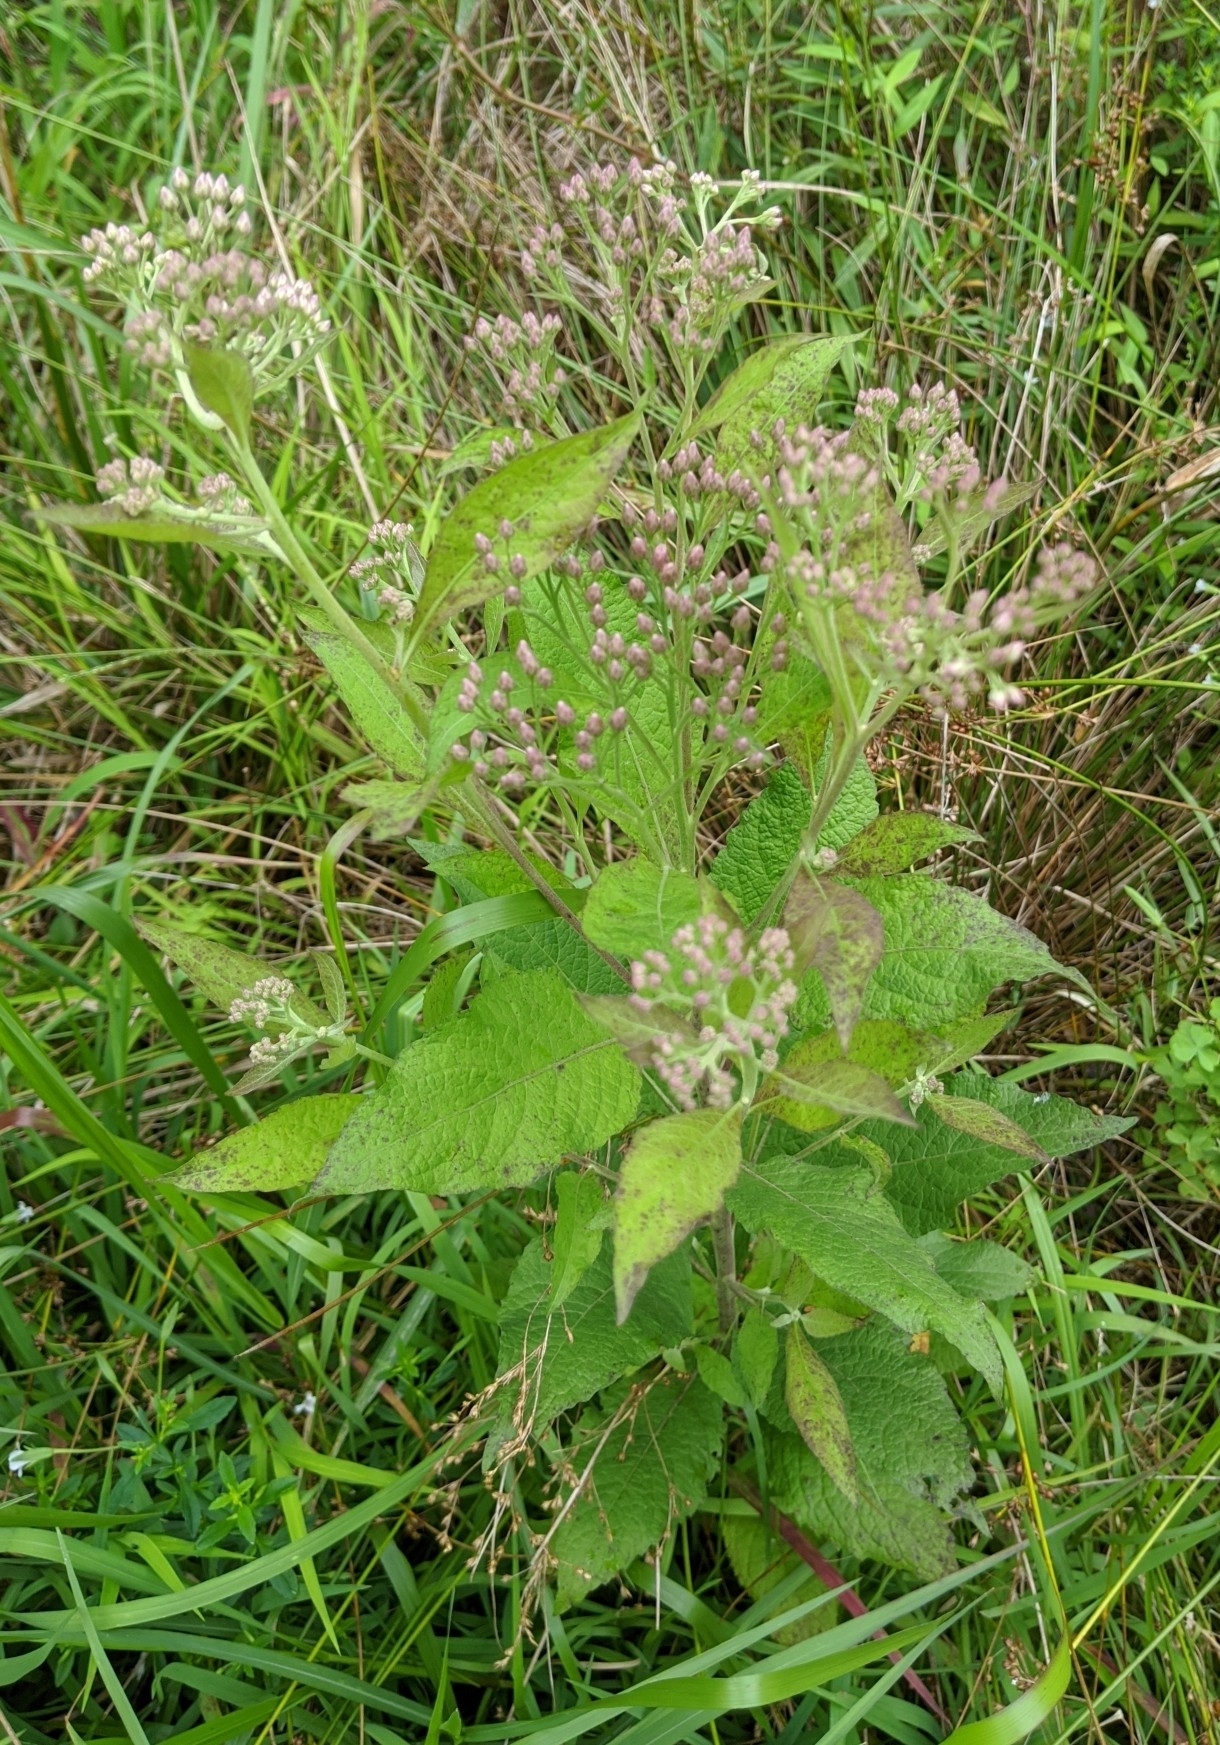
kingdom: Plantae
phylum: Tracheophyta
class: Magnoliopsida
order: Asterales
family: Asteraceae
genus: Pluchea
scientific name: Pluchea camphorata
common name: Camphor pluchea
